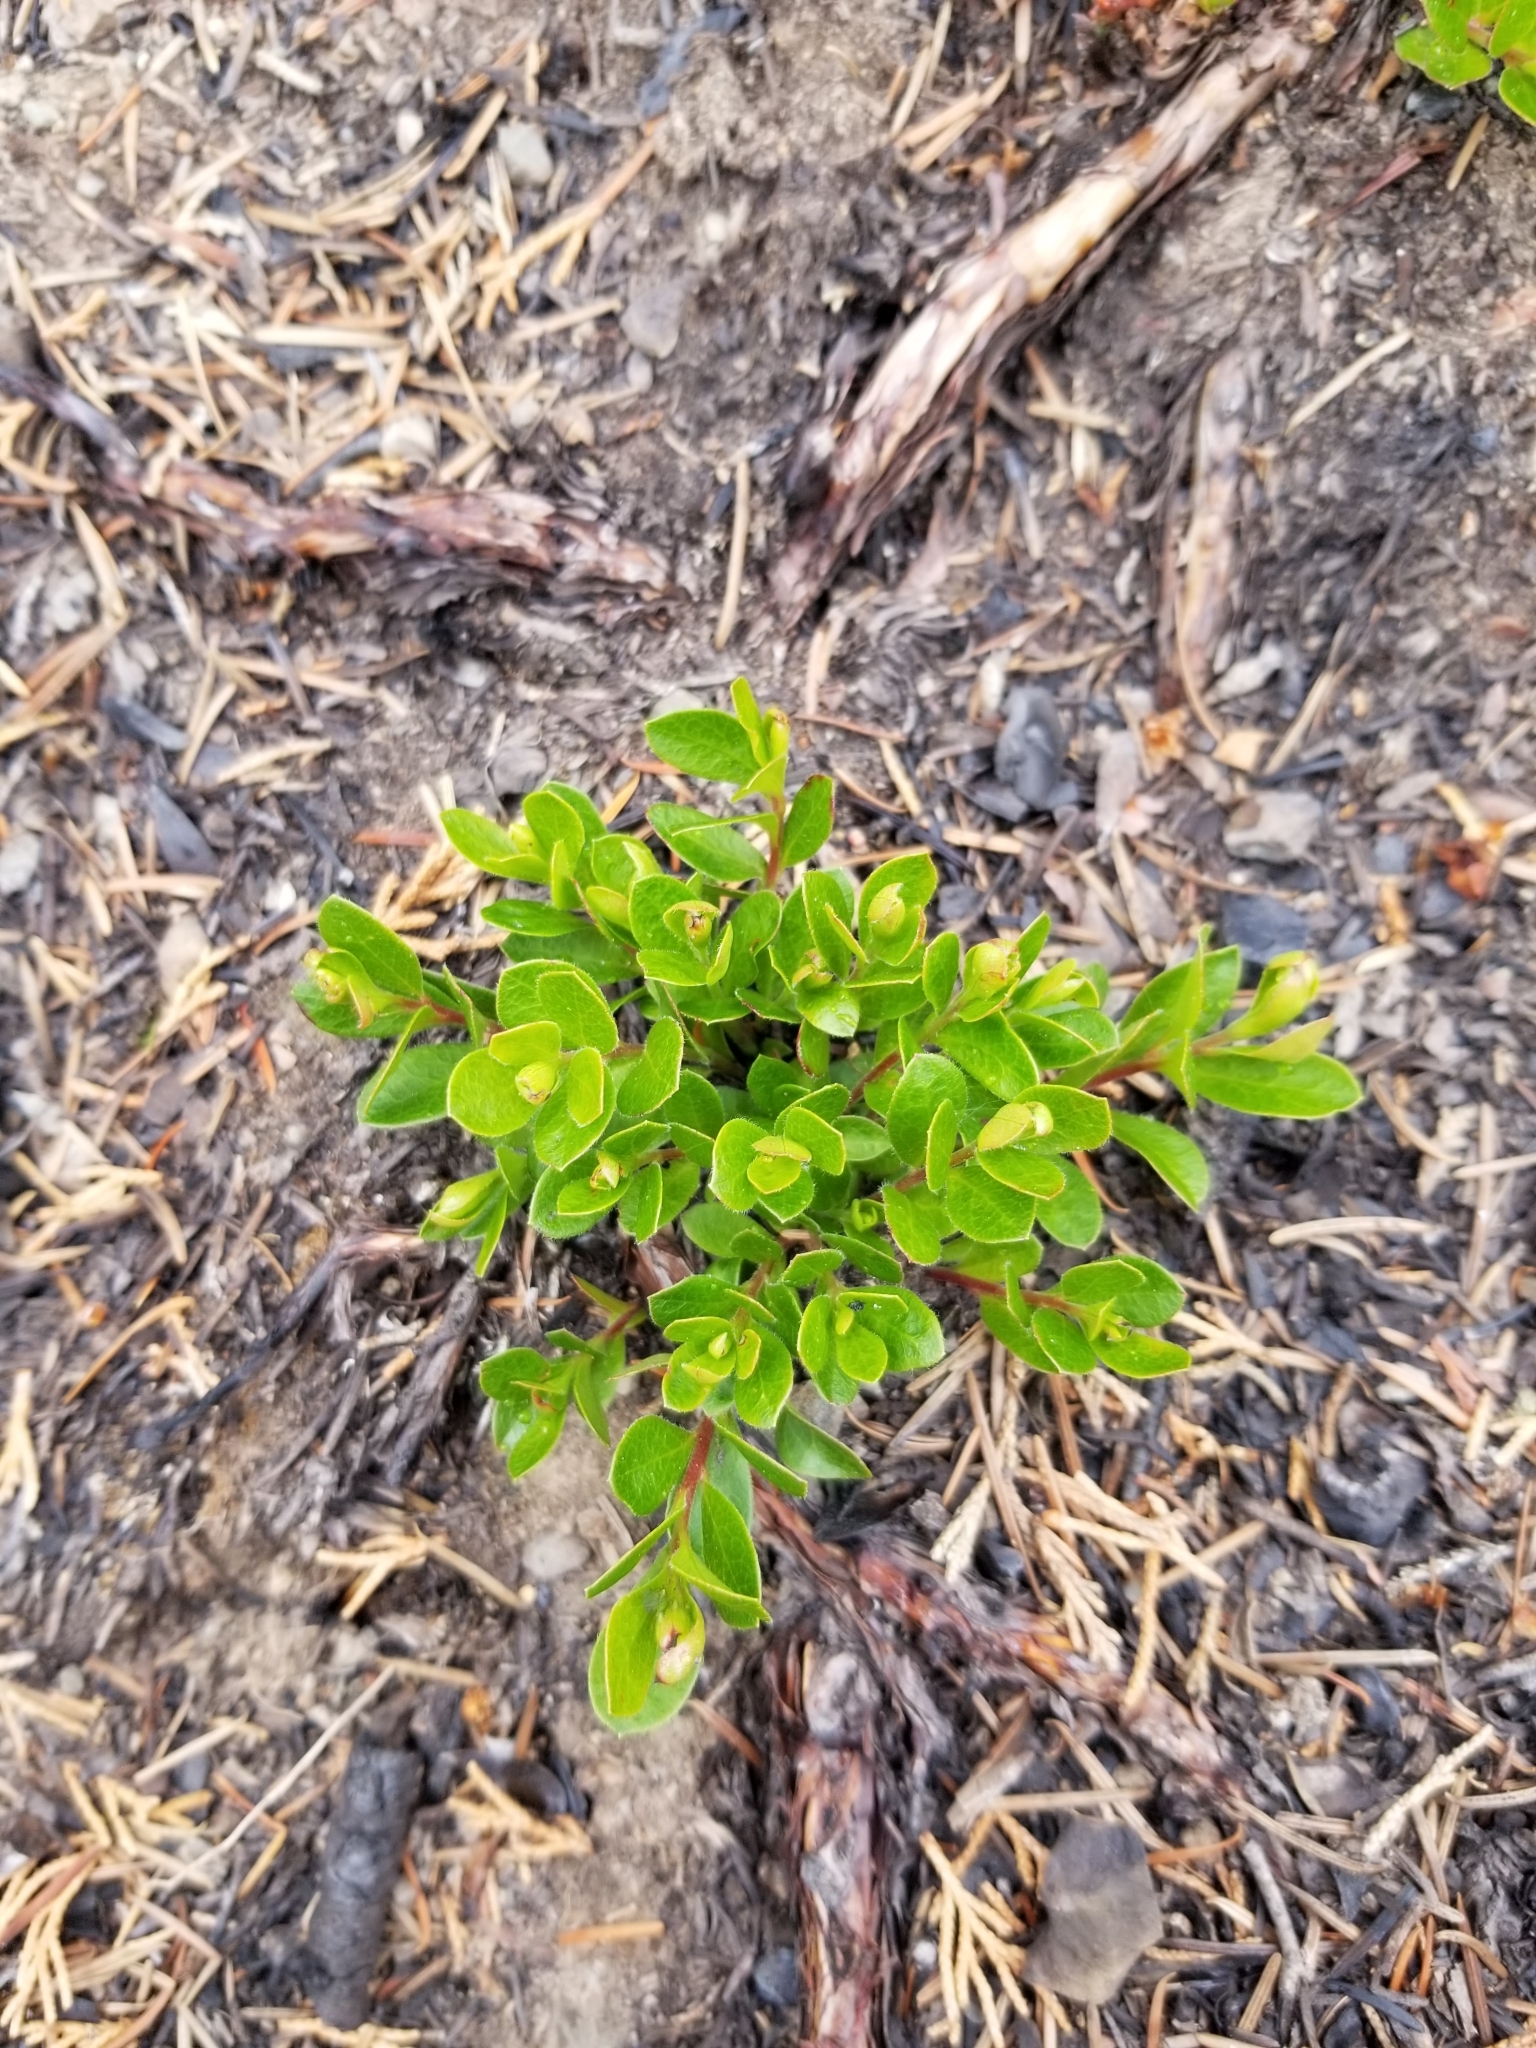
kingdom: Plantae
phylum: Tracheophyta
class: Magnoliopsida
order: Ericales
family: Ericaceae
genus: Arctostaphylos
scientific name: Arctostaphylos uva-ursi
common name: Bearberry
